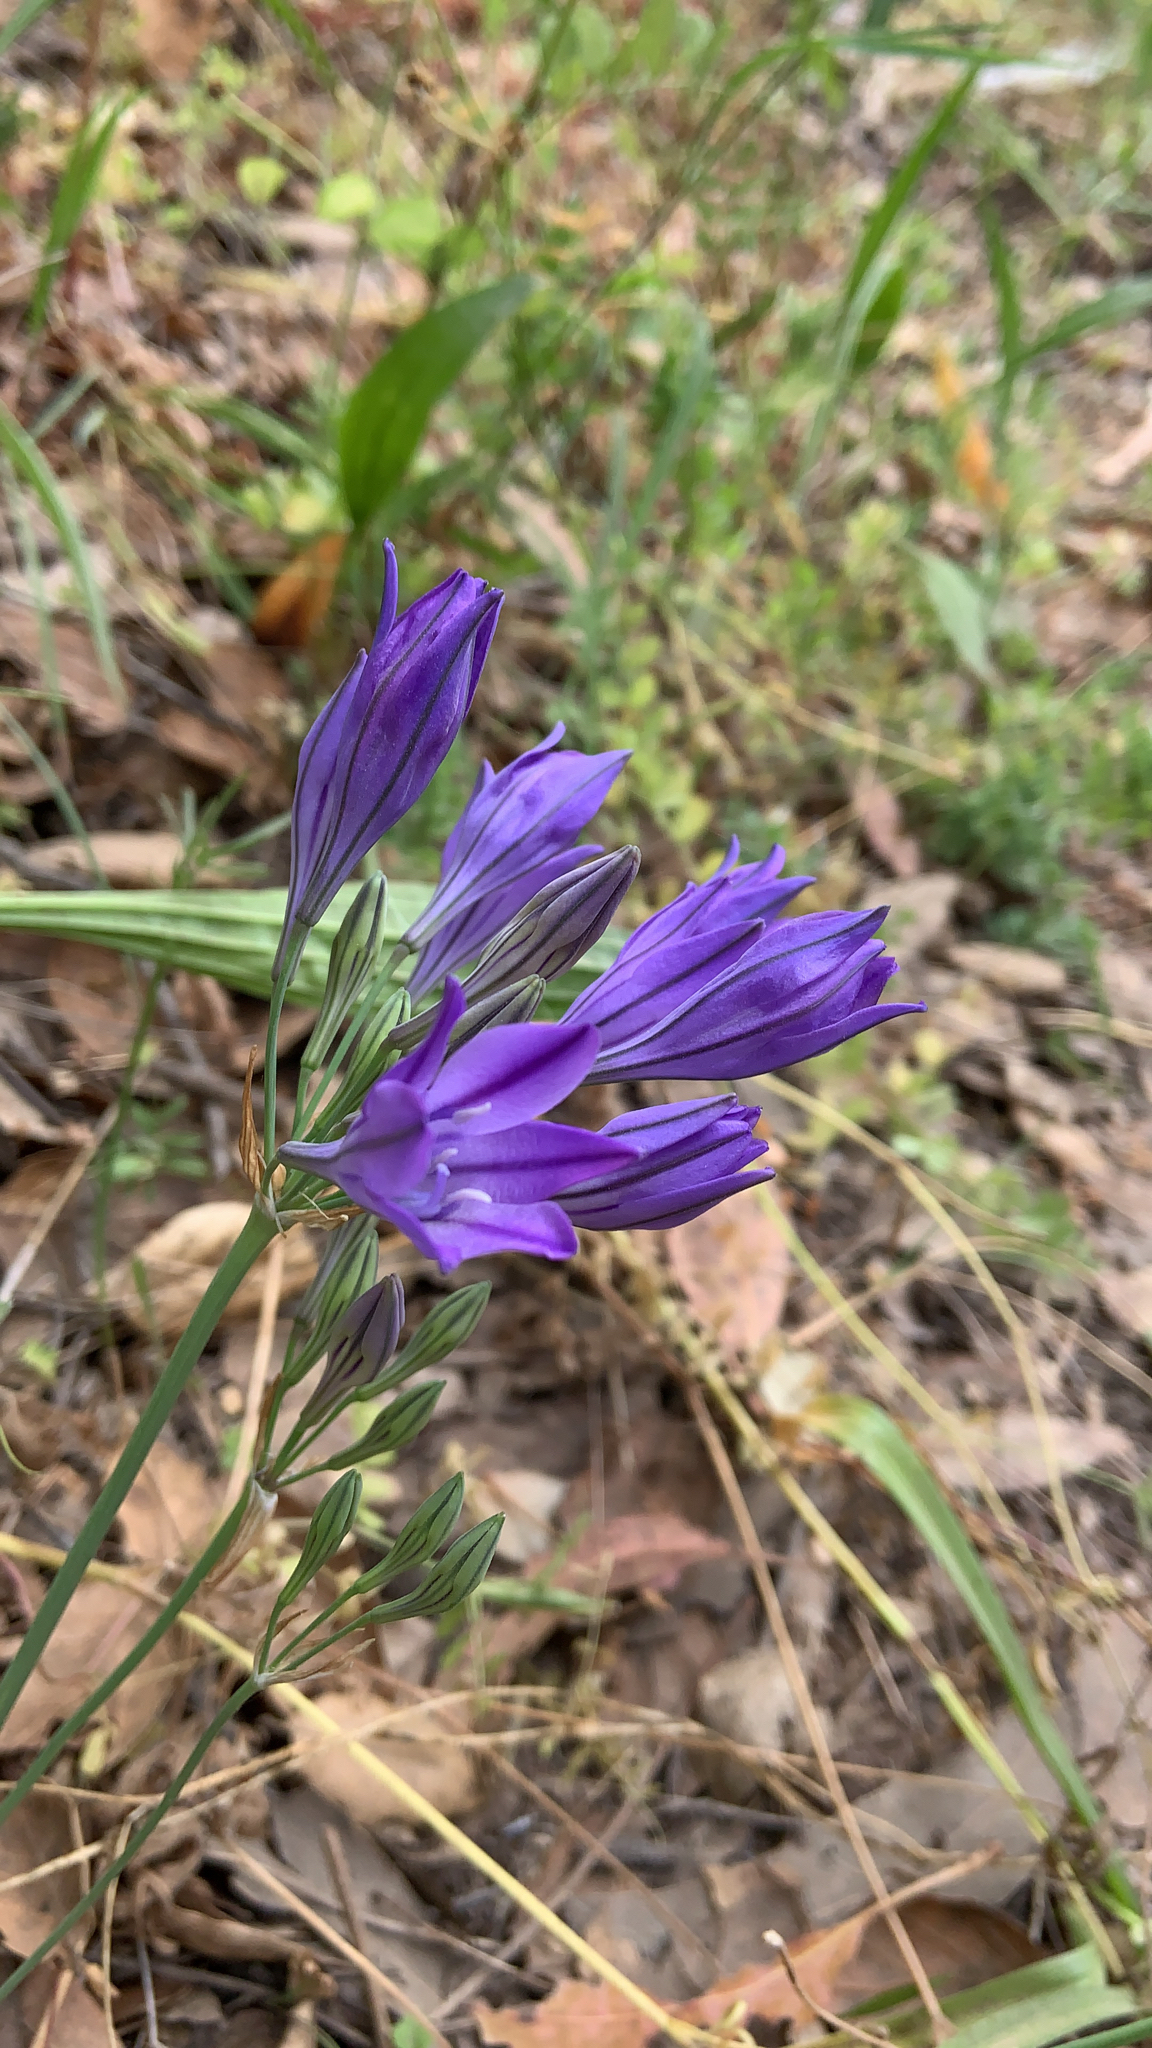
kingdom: Plantae
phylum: Tracheophyta
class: Liliopsida
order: Asparagales
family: Asparagaceae
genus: Triteleia
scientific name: Triteleia laxa
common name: Triplet-lily
